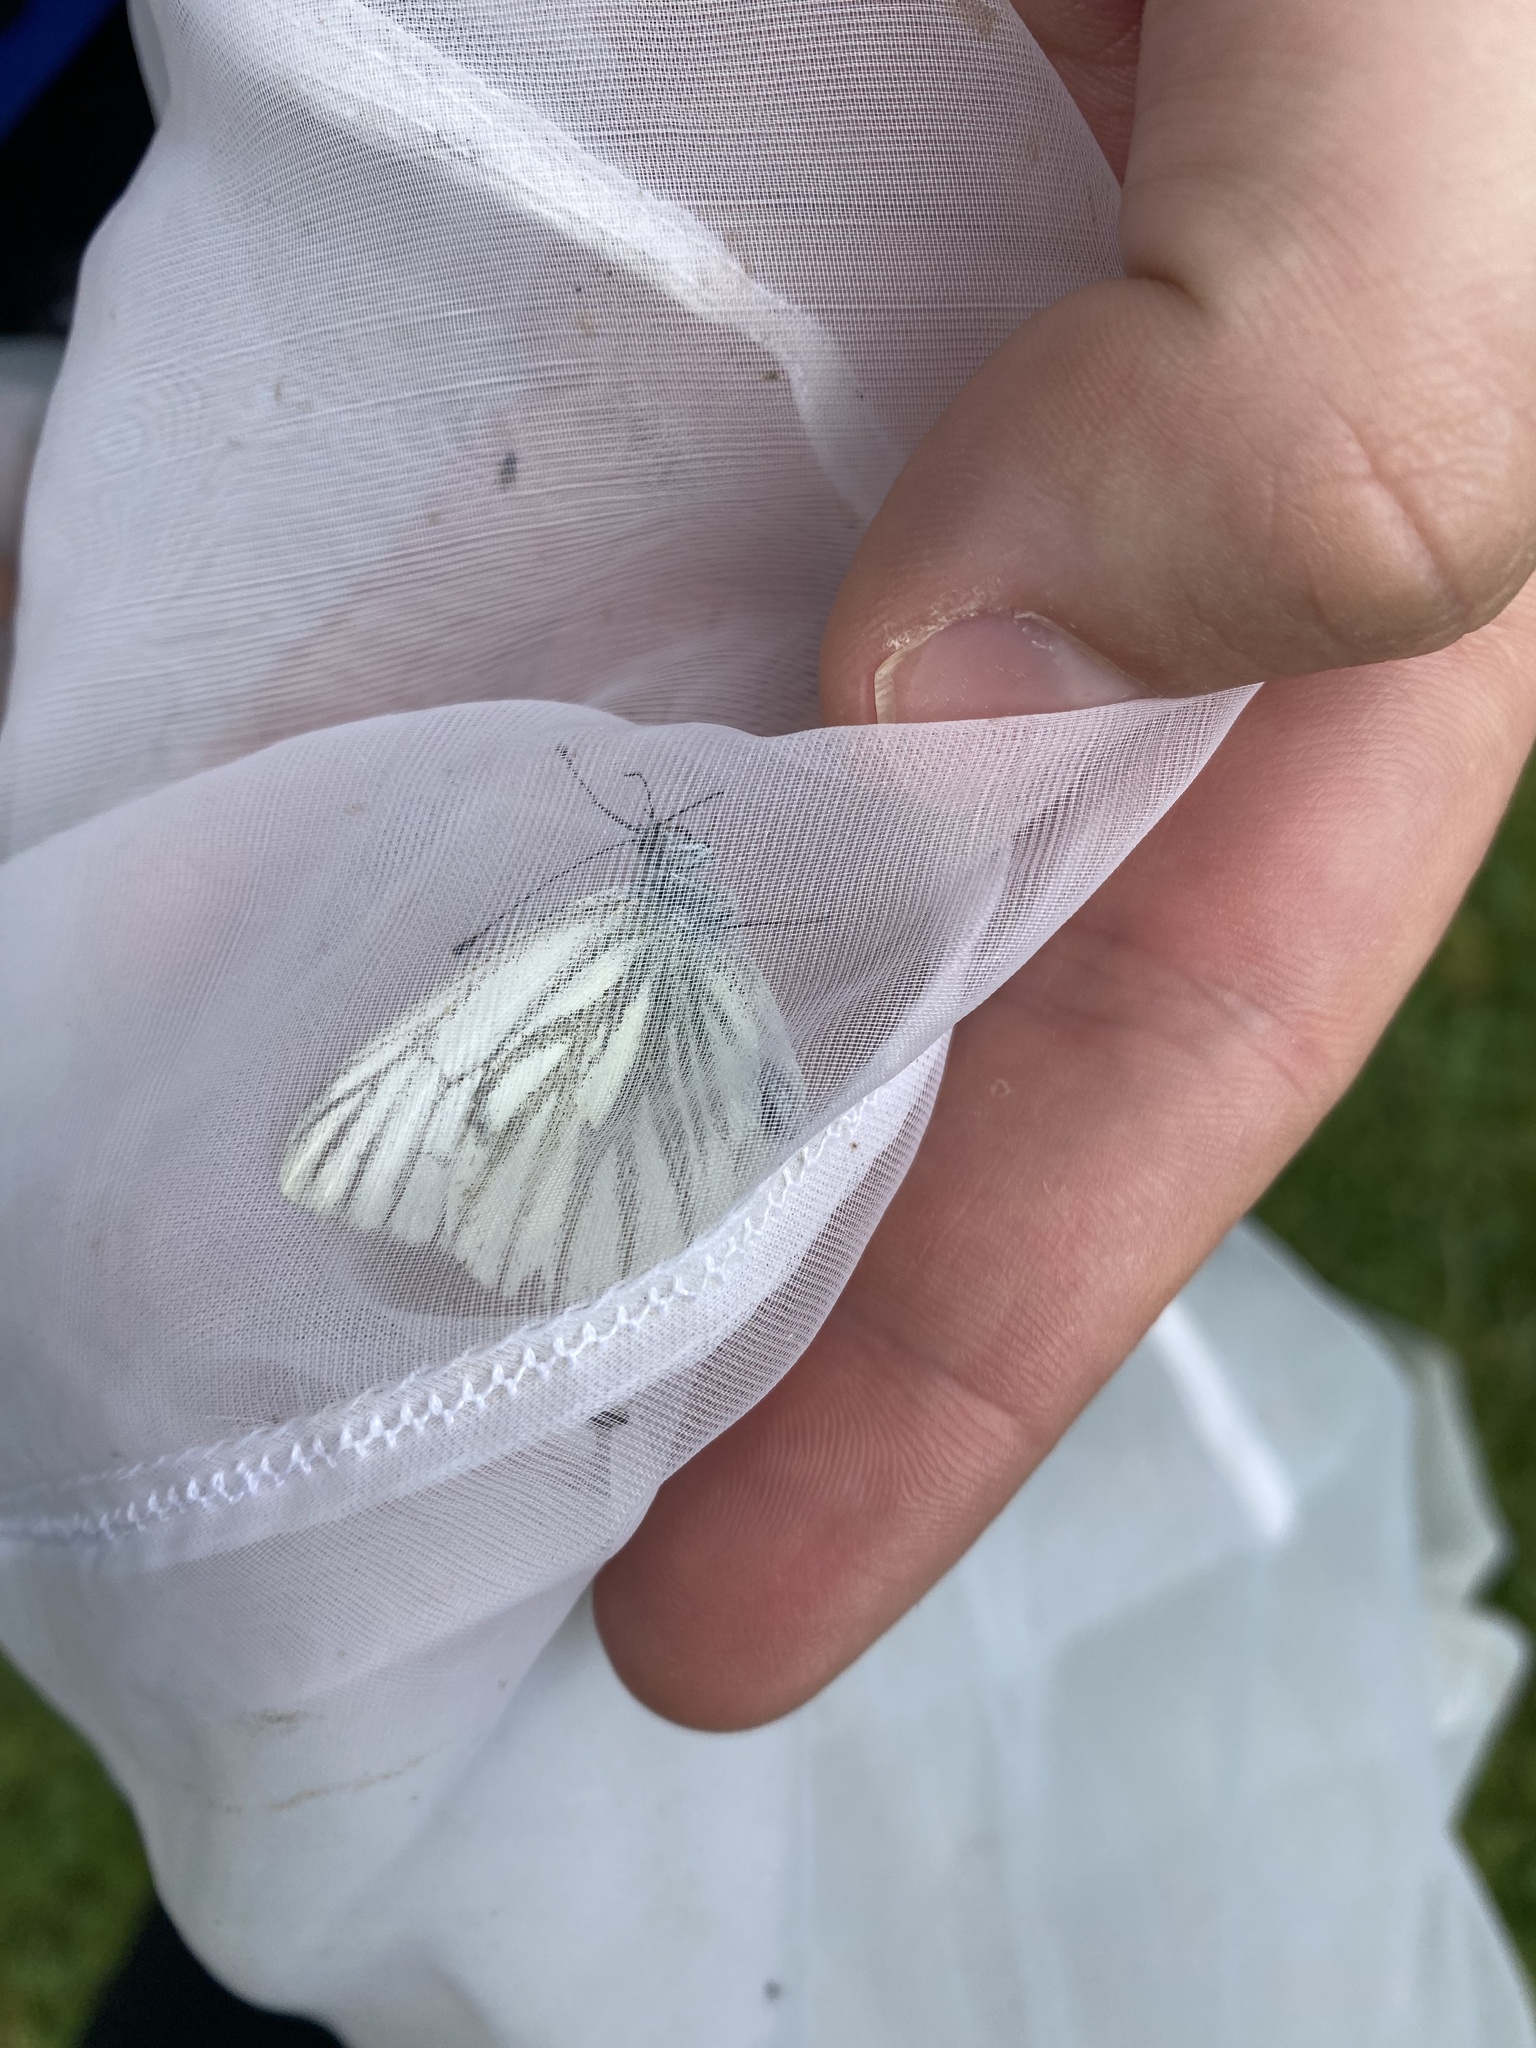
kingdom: Animalia
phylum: Arthropoda
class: Insecta
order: Lepidoptera
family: Pieridae
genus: Pieris
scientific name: Pieris napi
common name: Green-veined white
